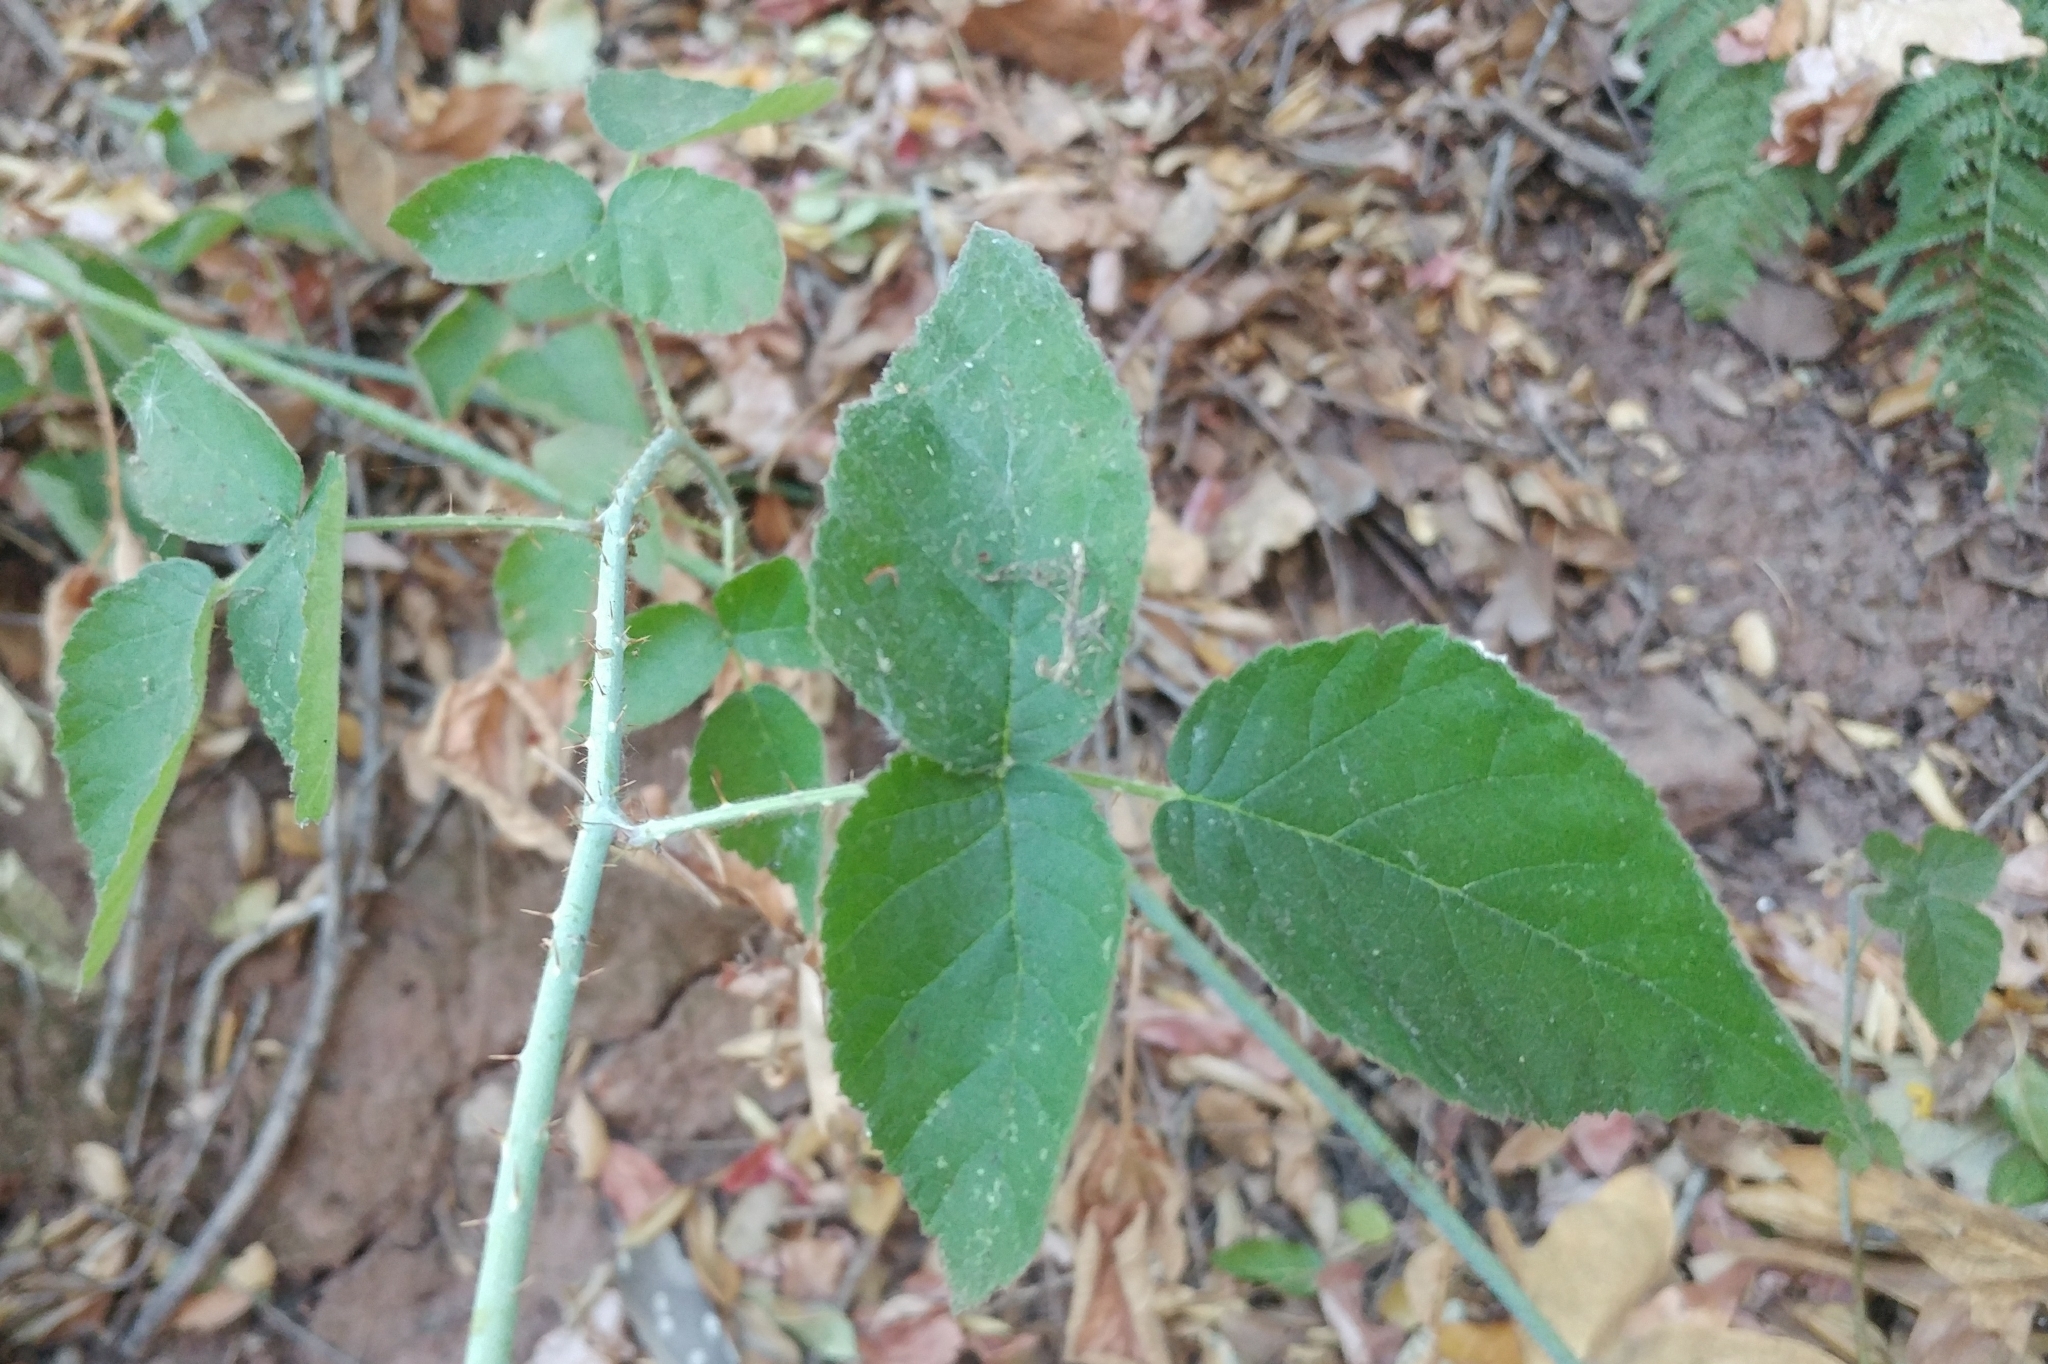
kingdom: Plantae
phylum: Tracheophyta
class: Magnoliopsida
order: Rosales
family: Rosaceae
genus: Rubus
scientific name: Rubus ursinus
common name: Pacific blackberry
